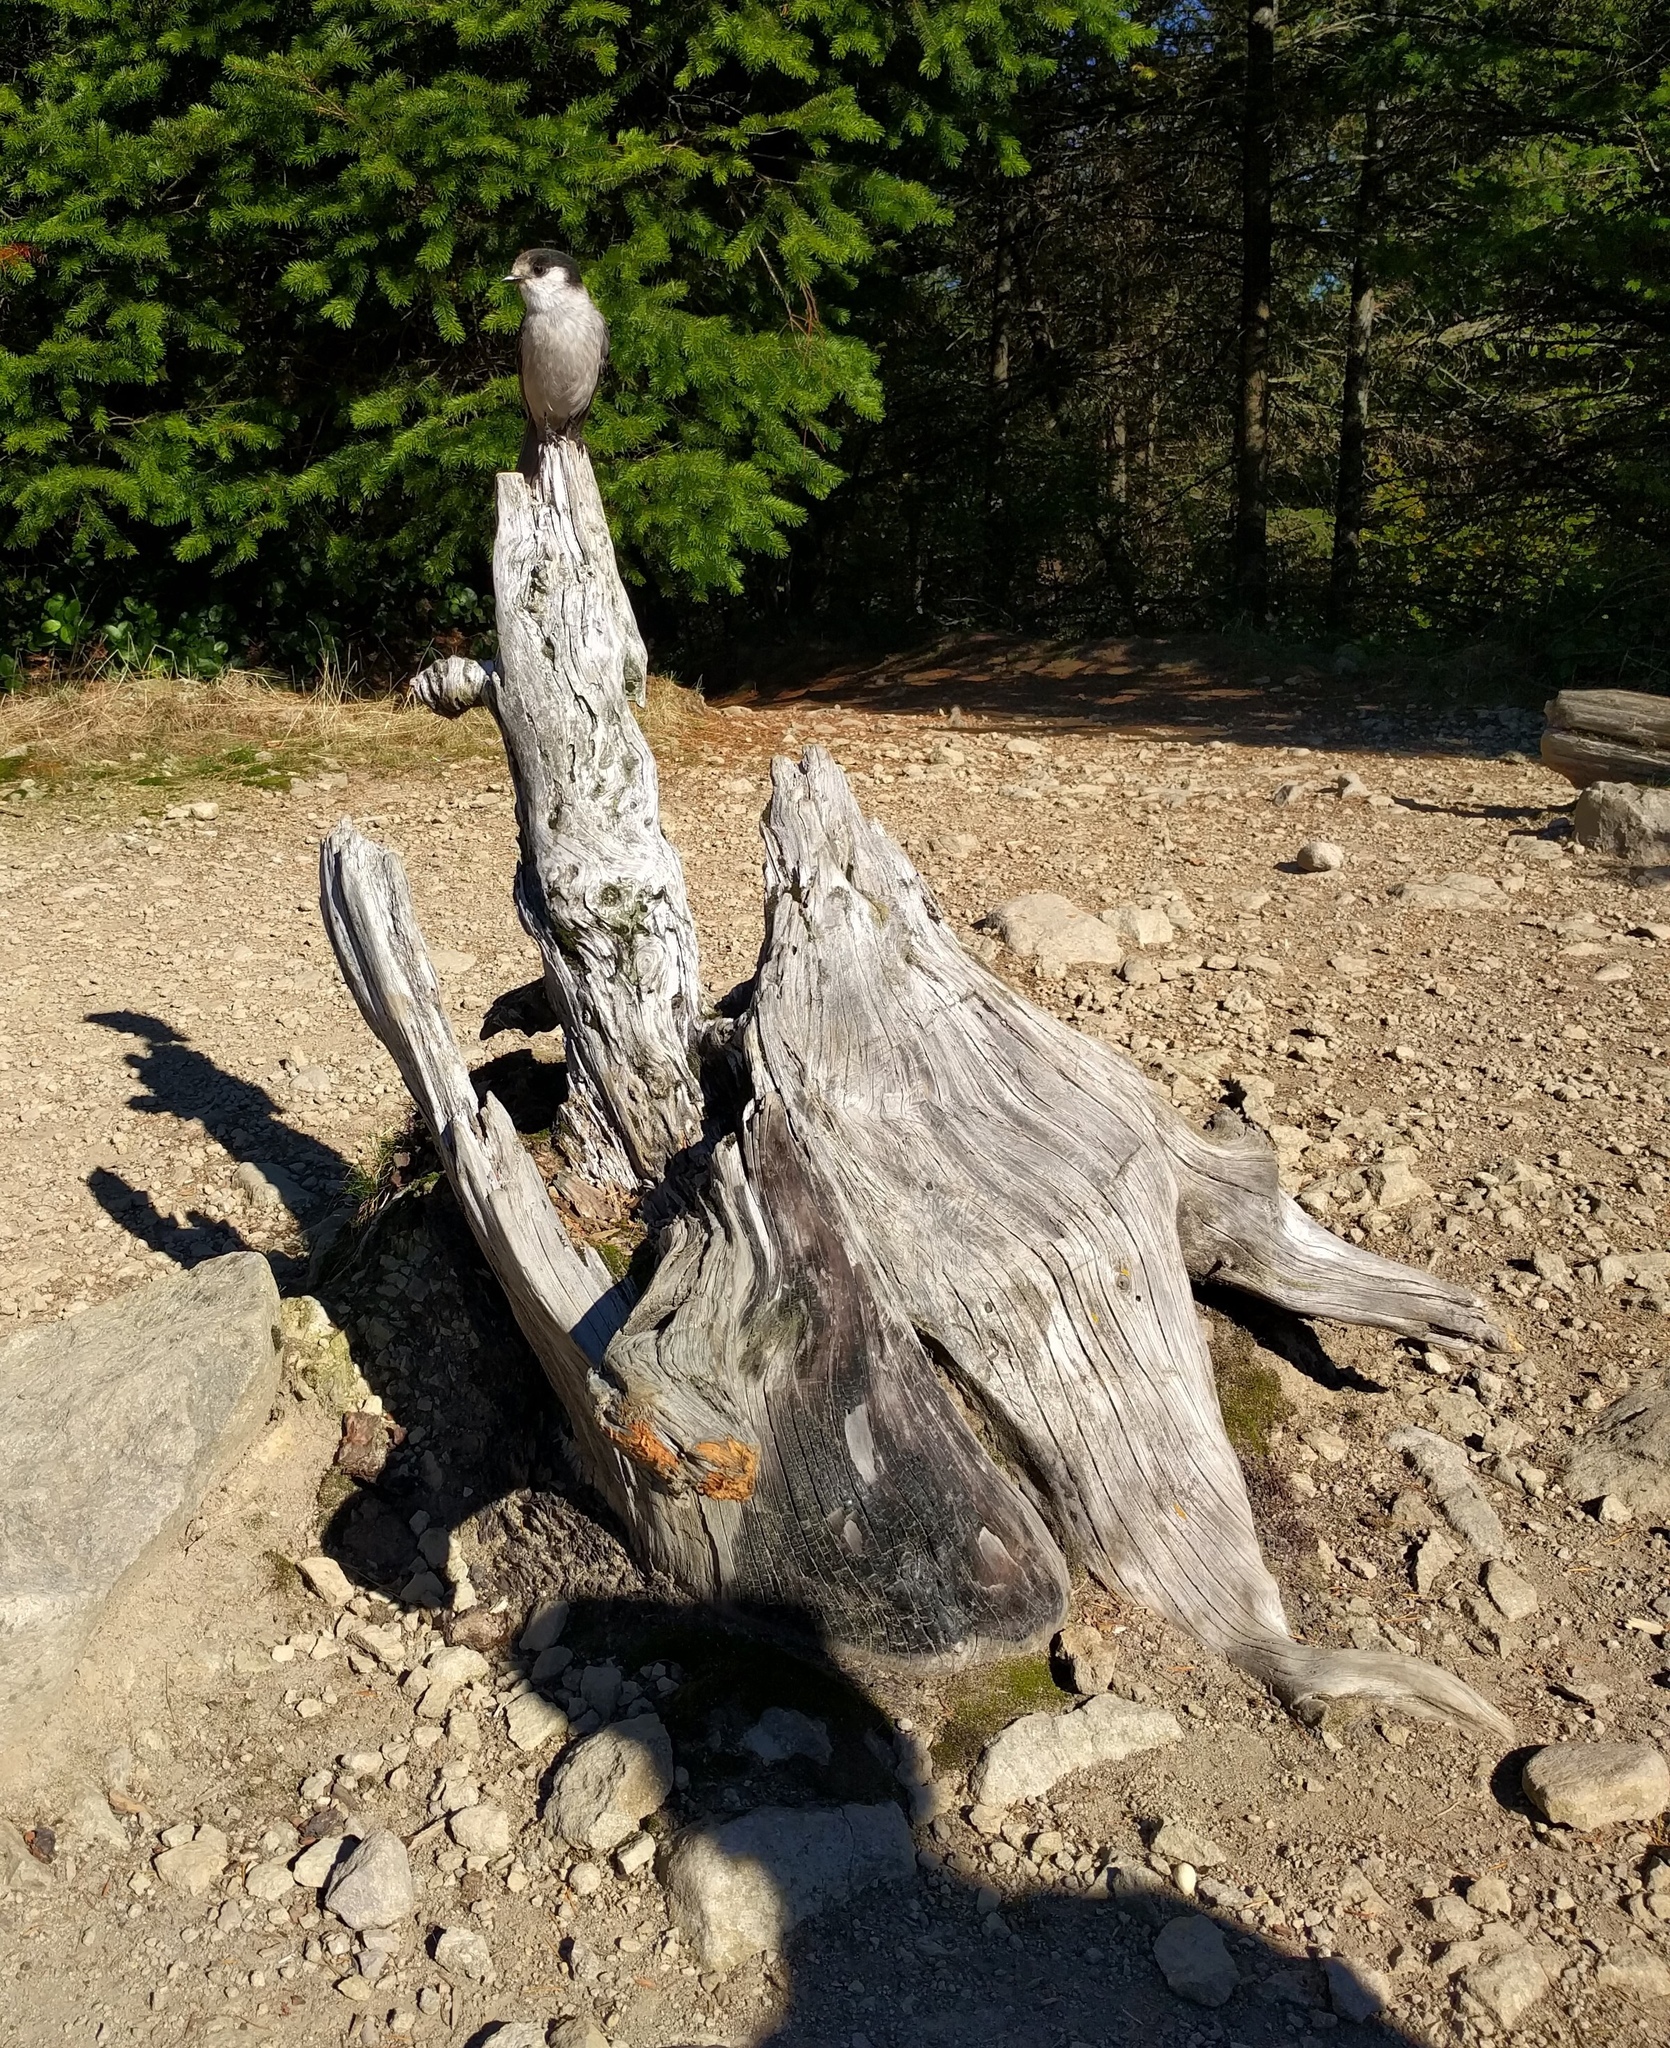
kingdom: Animalia
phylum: Chordata
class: Aves
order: Passeriformes
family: Corvidae
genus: Perisoreus
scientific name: Perisoreus canadensis
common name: Gray jay
